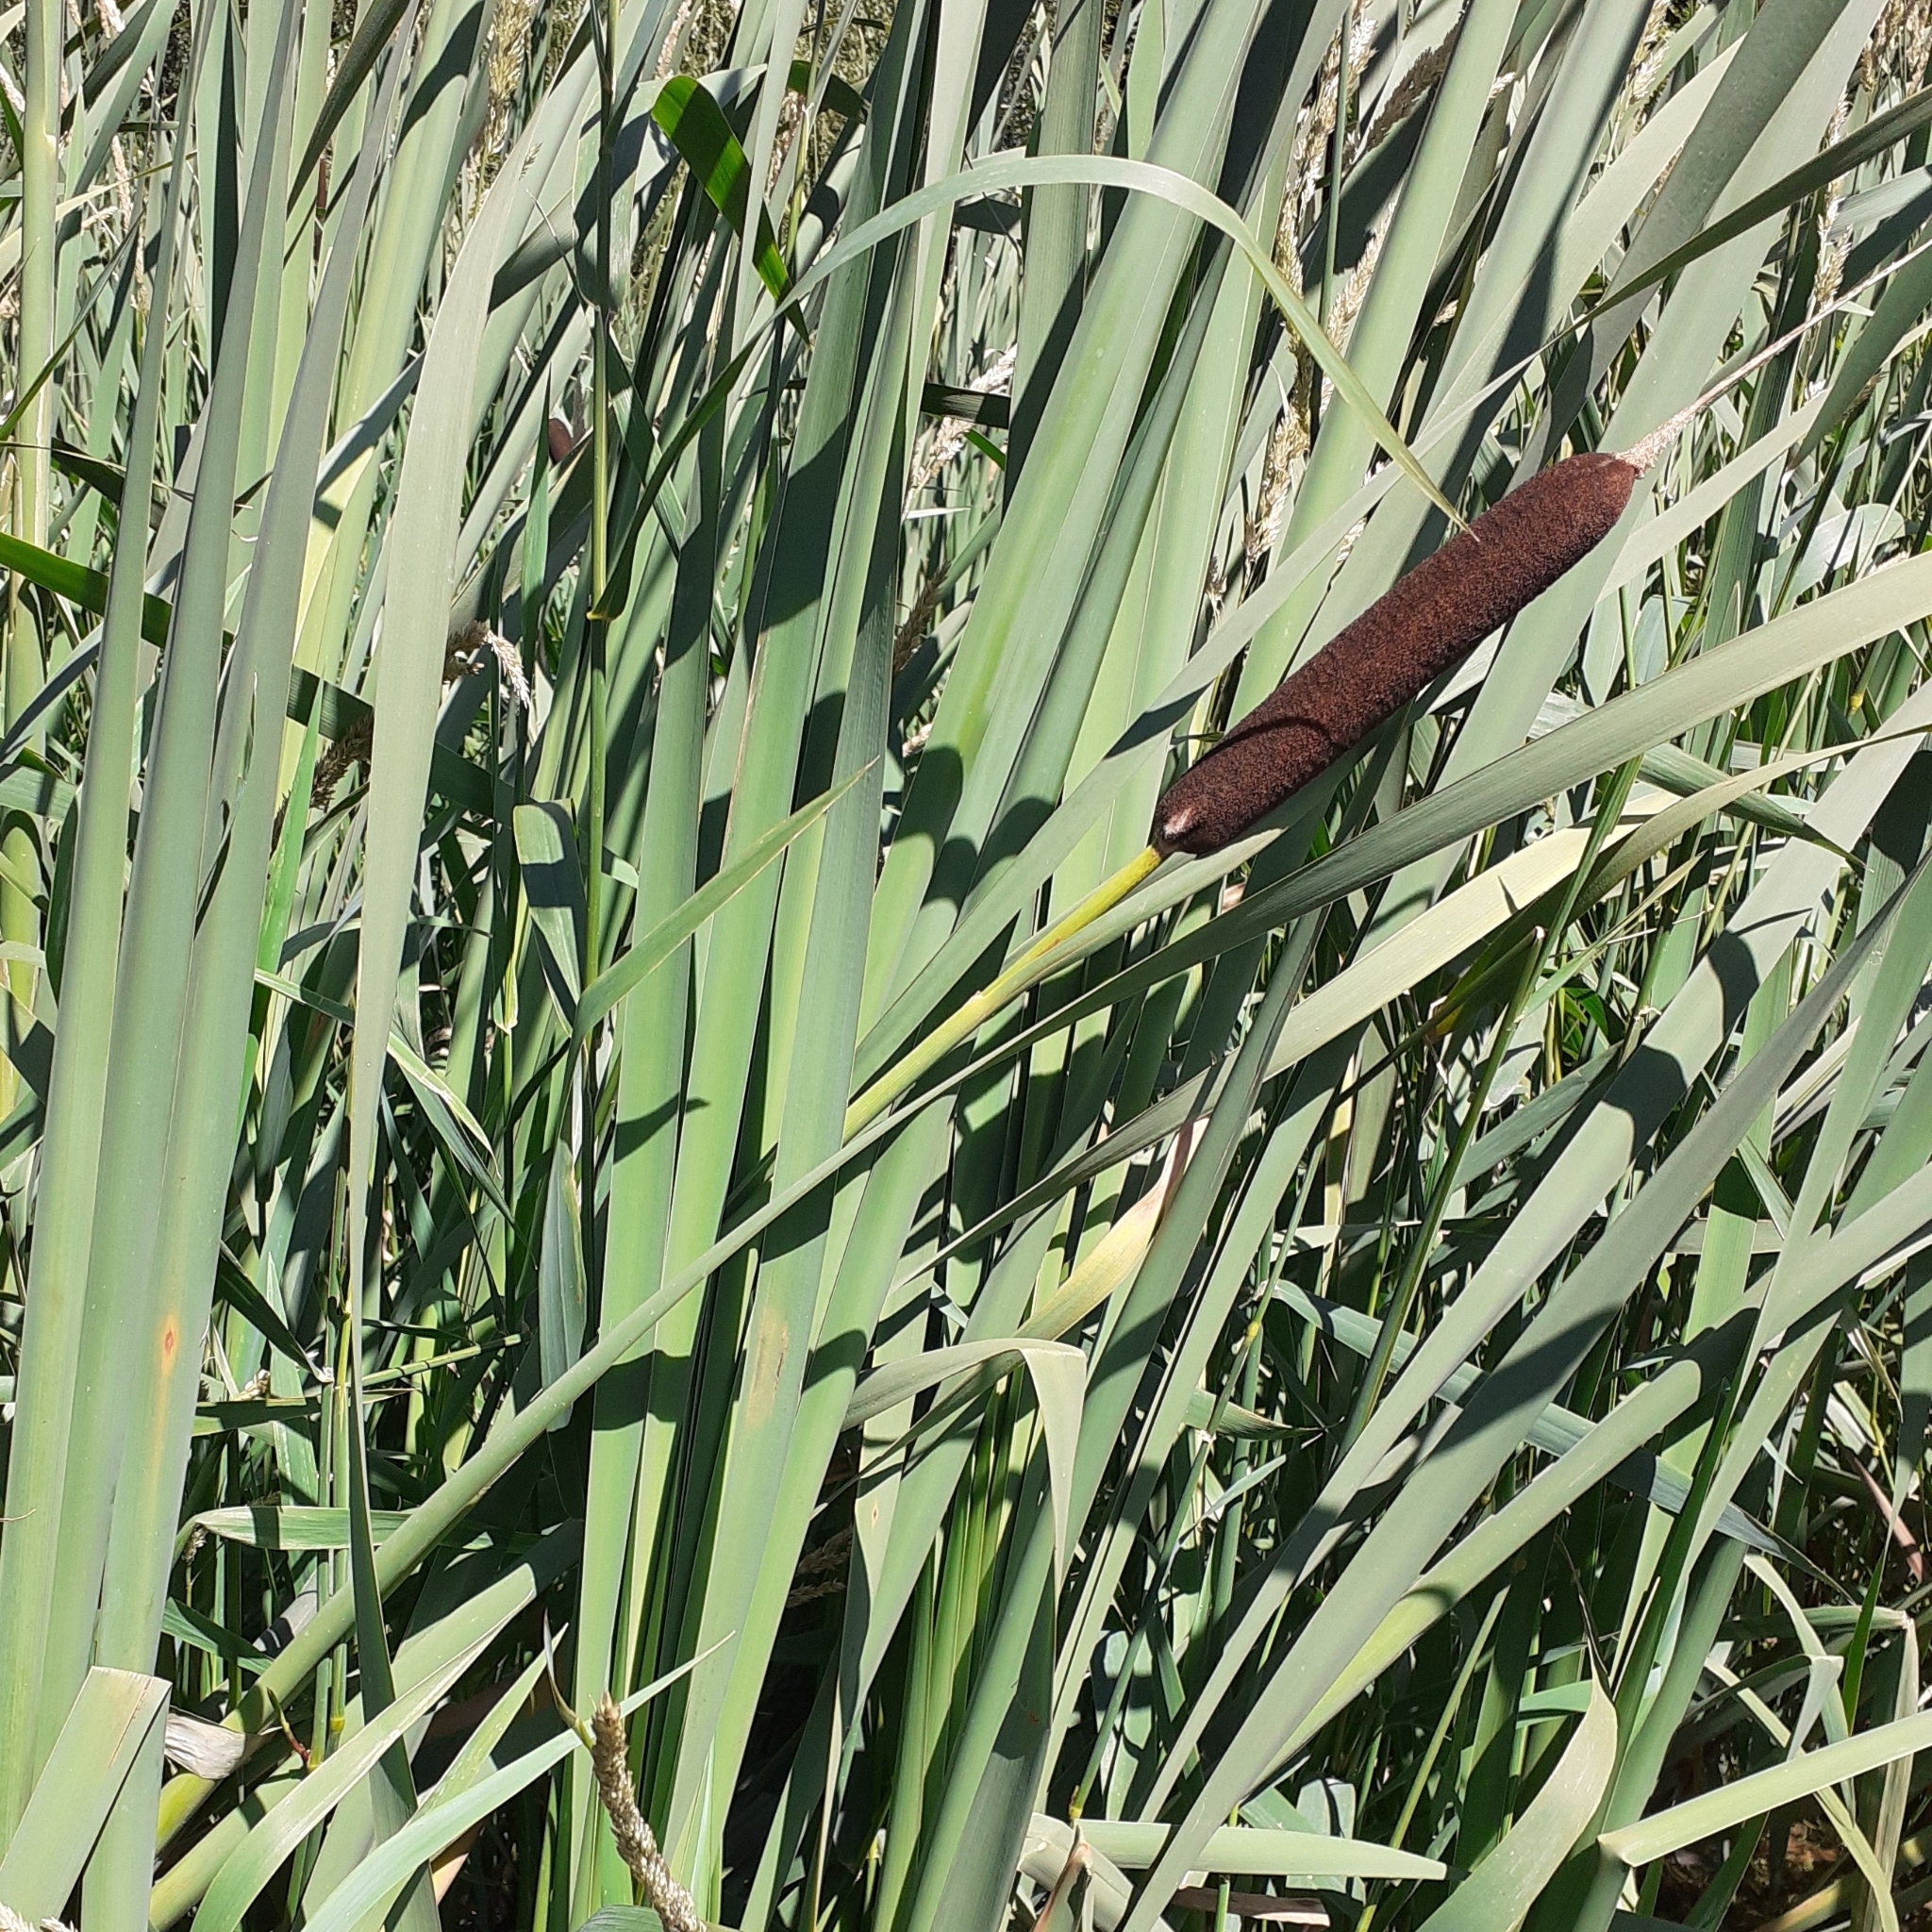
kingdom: Plantae
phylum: Tracheophyta
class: Liliopsida
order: Poales
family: Typhaceae
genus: Typha
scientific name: Typha latifolia
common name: Broadleaf cattail
